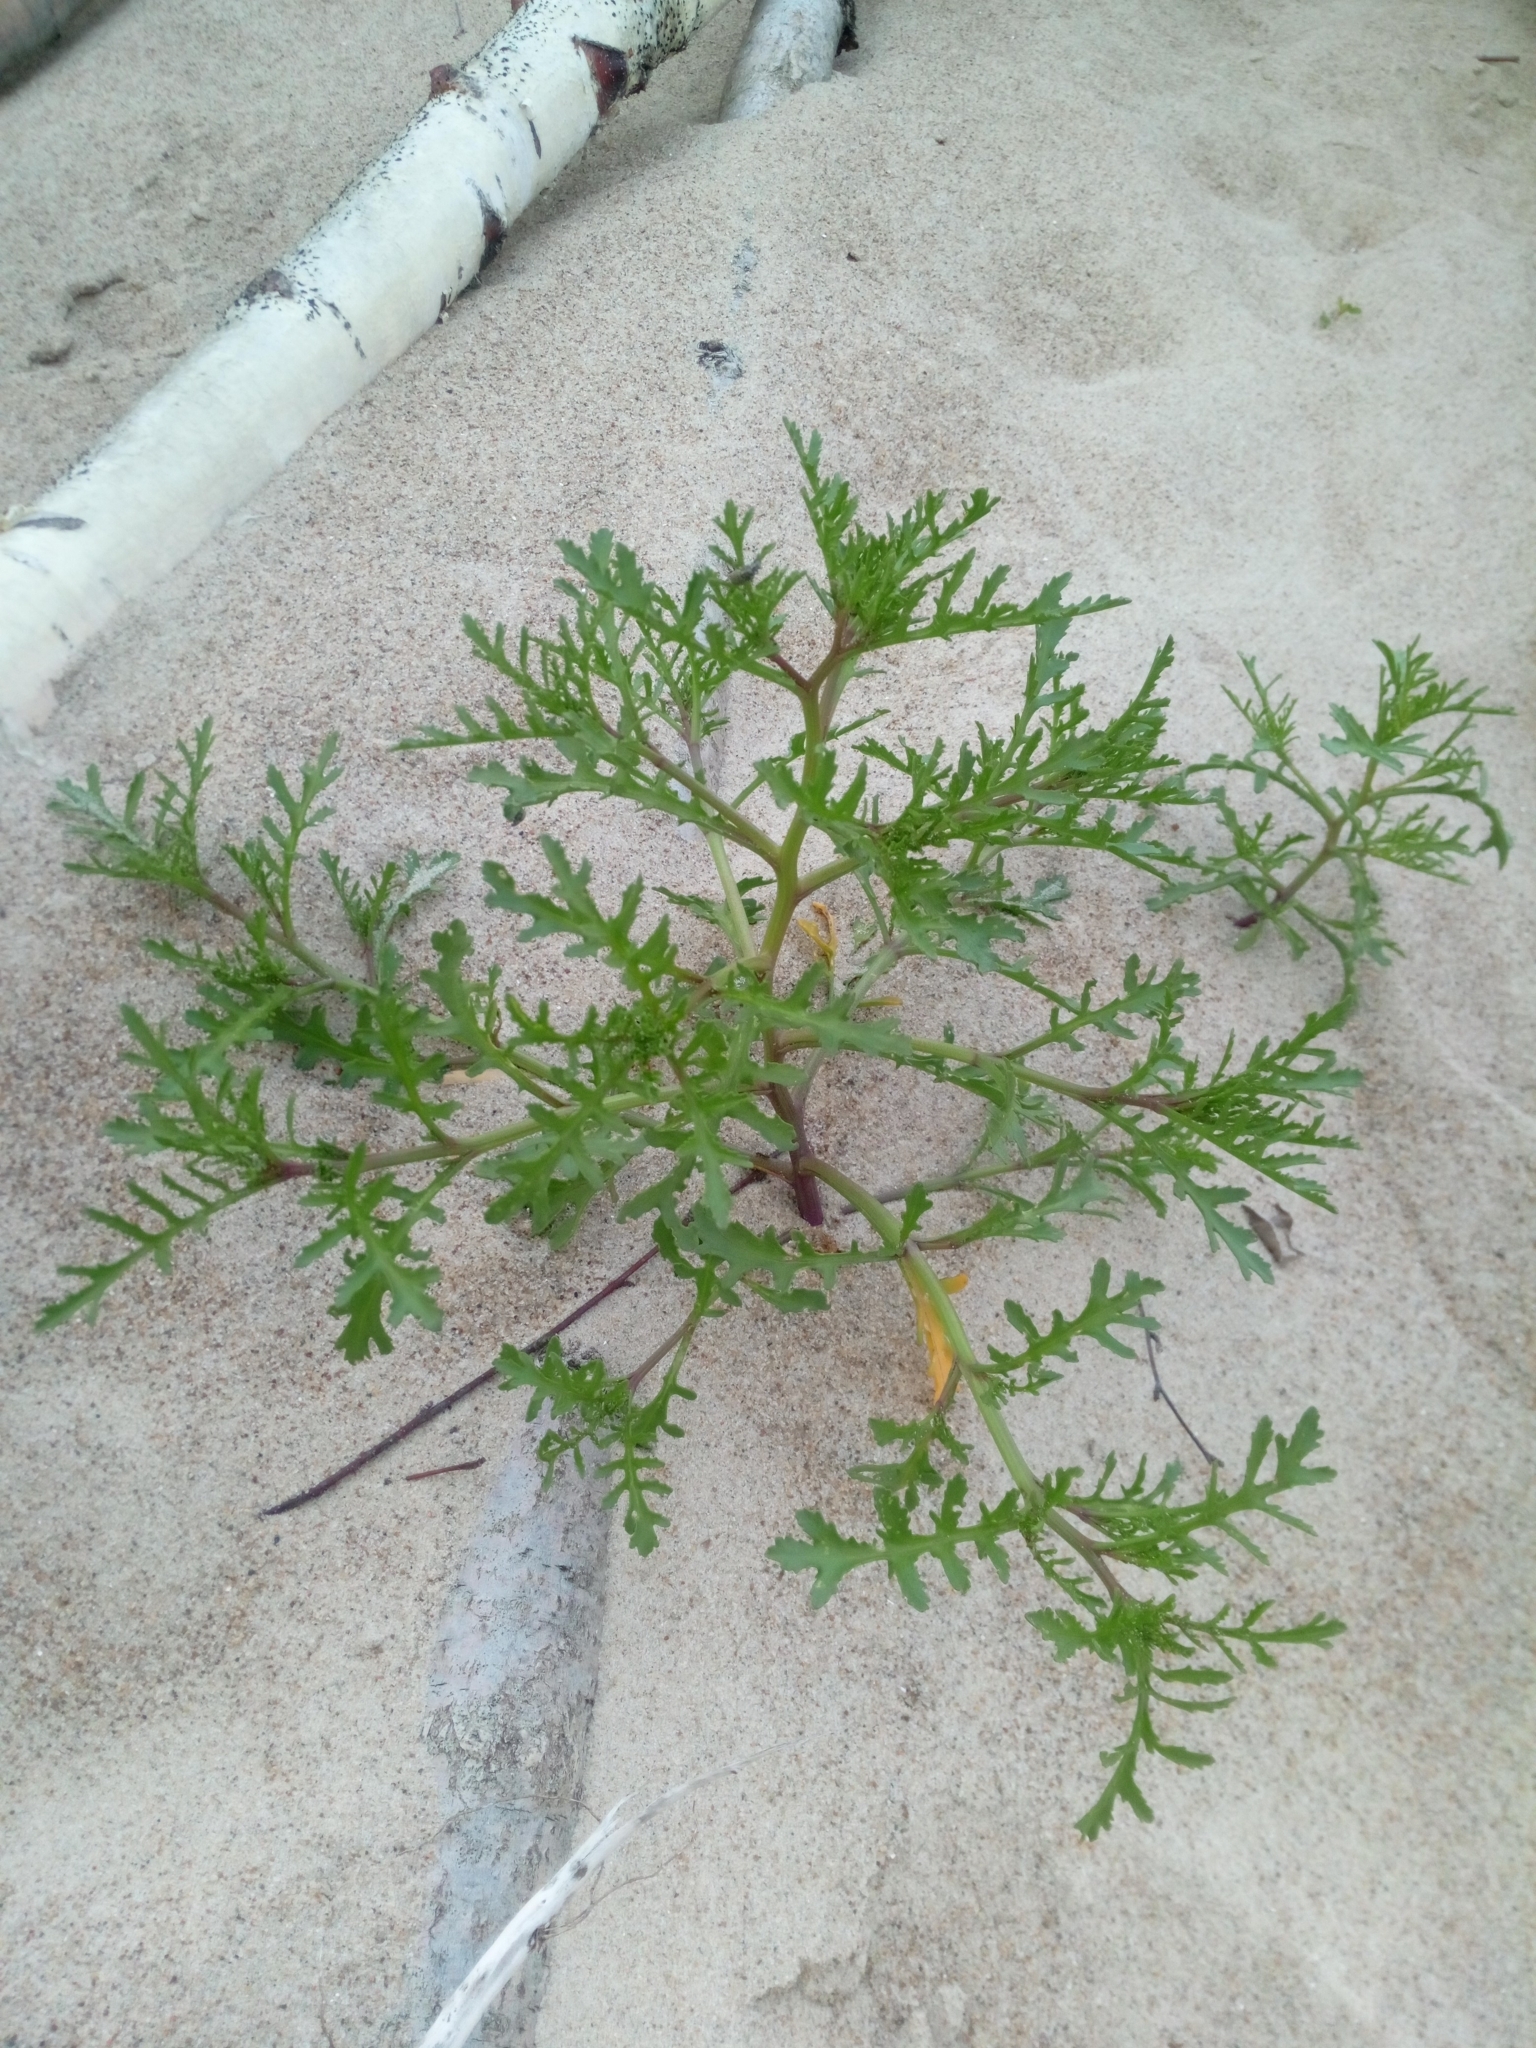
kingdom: Plantae
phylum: Tracheophyta
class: Magnoliopsida
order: Brassicales
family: Brassicaceae
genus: Cakile
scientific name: Cakile maritima
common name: Sea rocket
